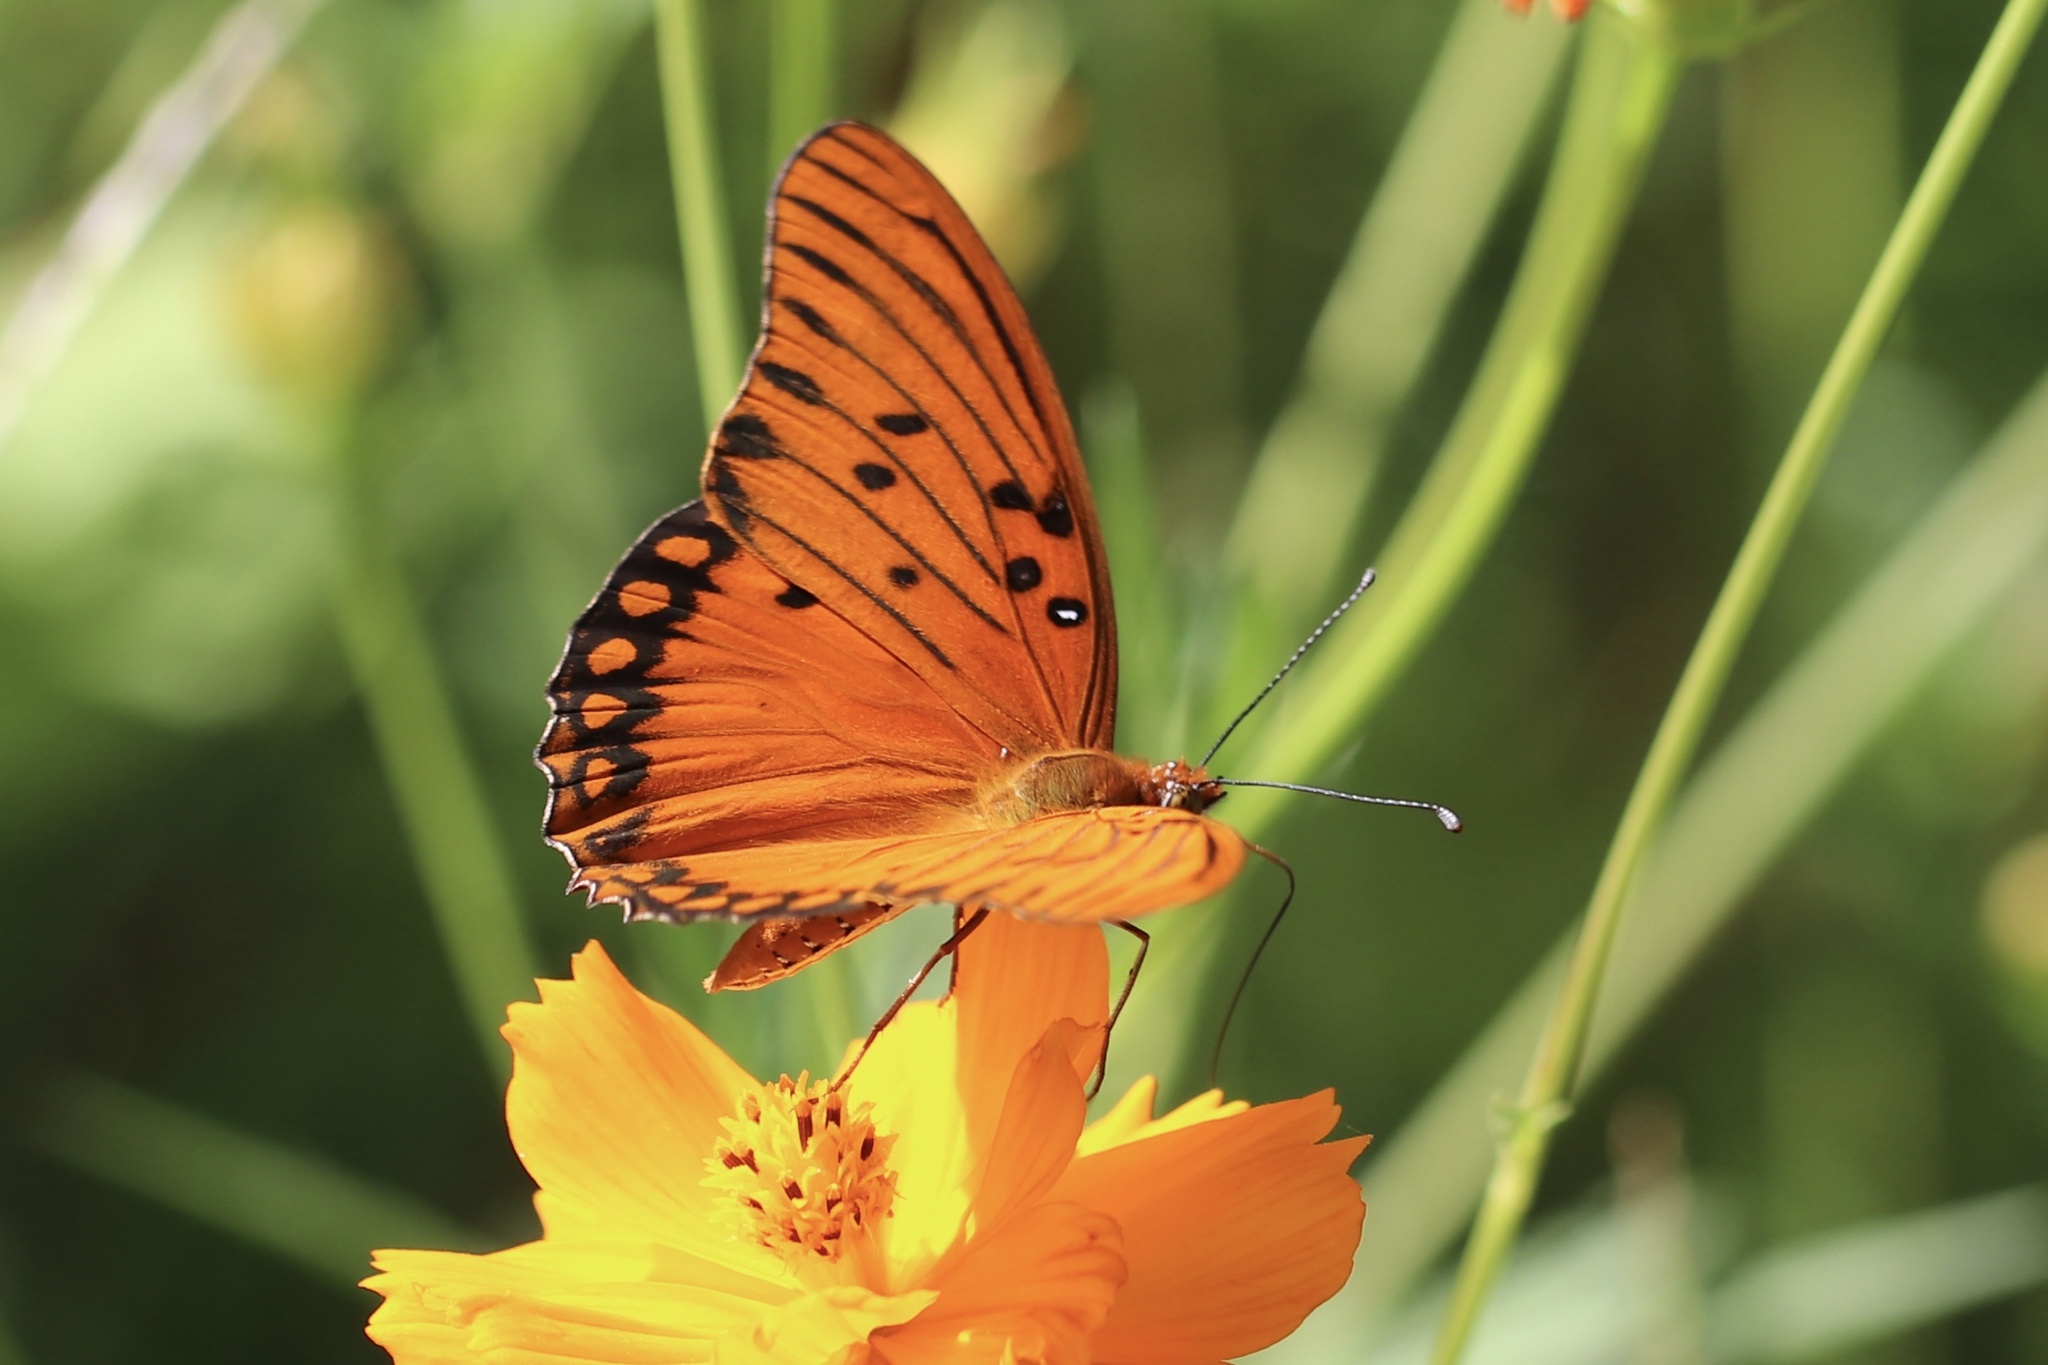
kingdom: Animalia
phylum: Arthropoda
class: Insecta
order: Lepidoptera
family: Nymphalidae
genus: Dione
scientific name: Dione vanillae
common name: Gulf fritillary
